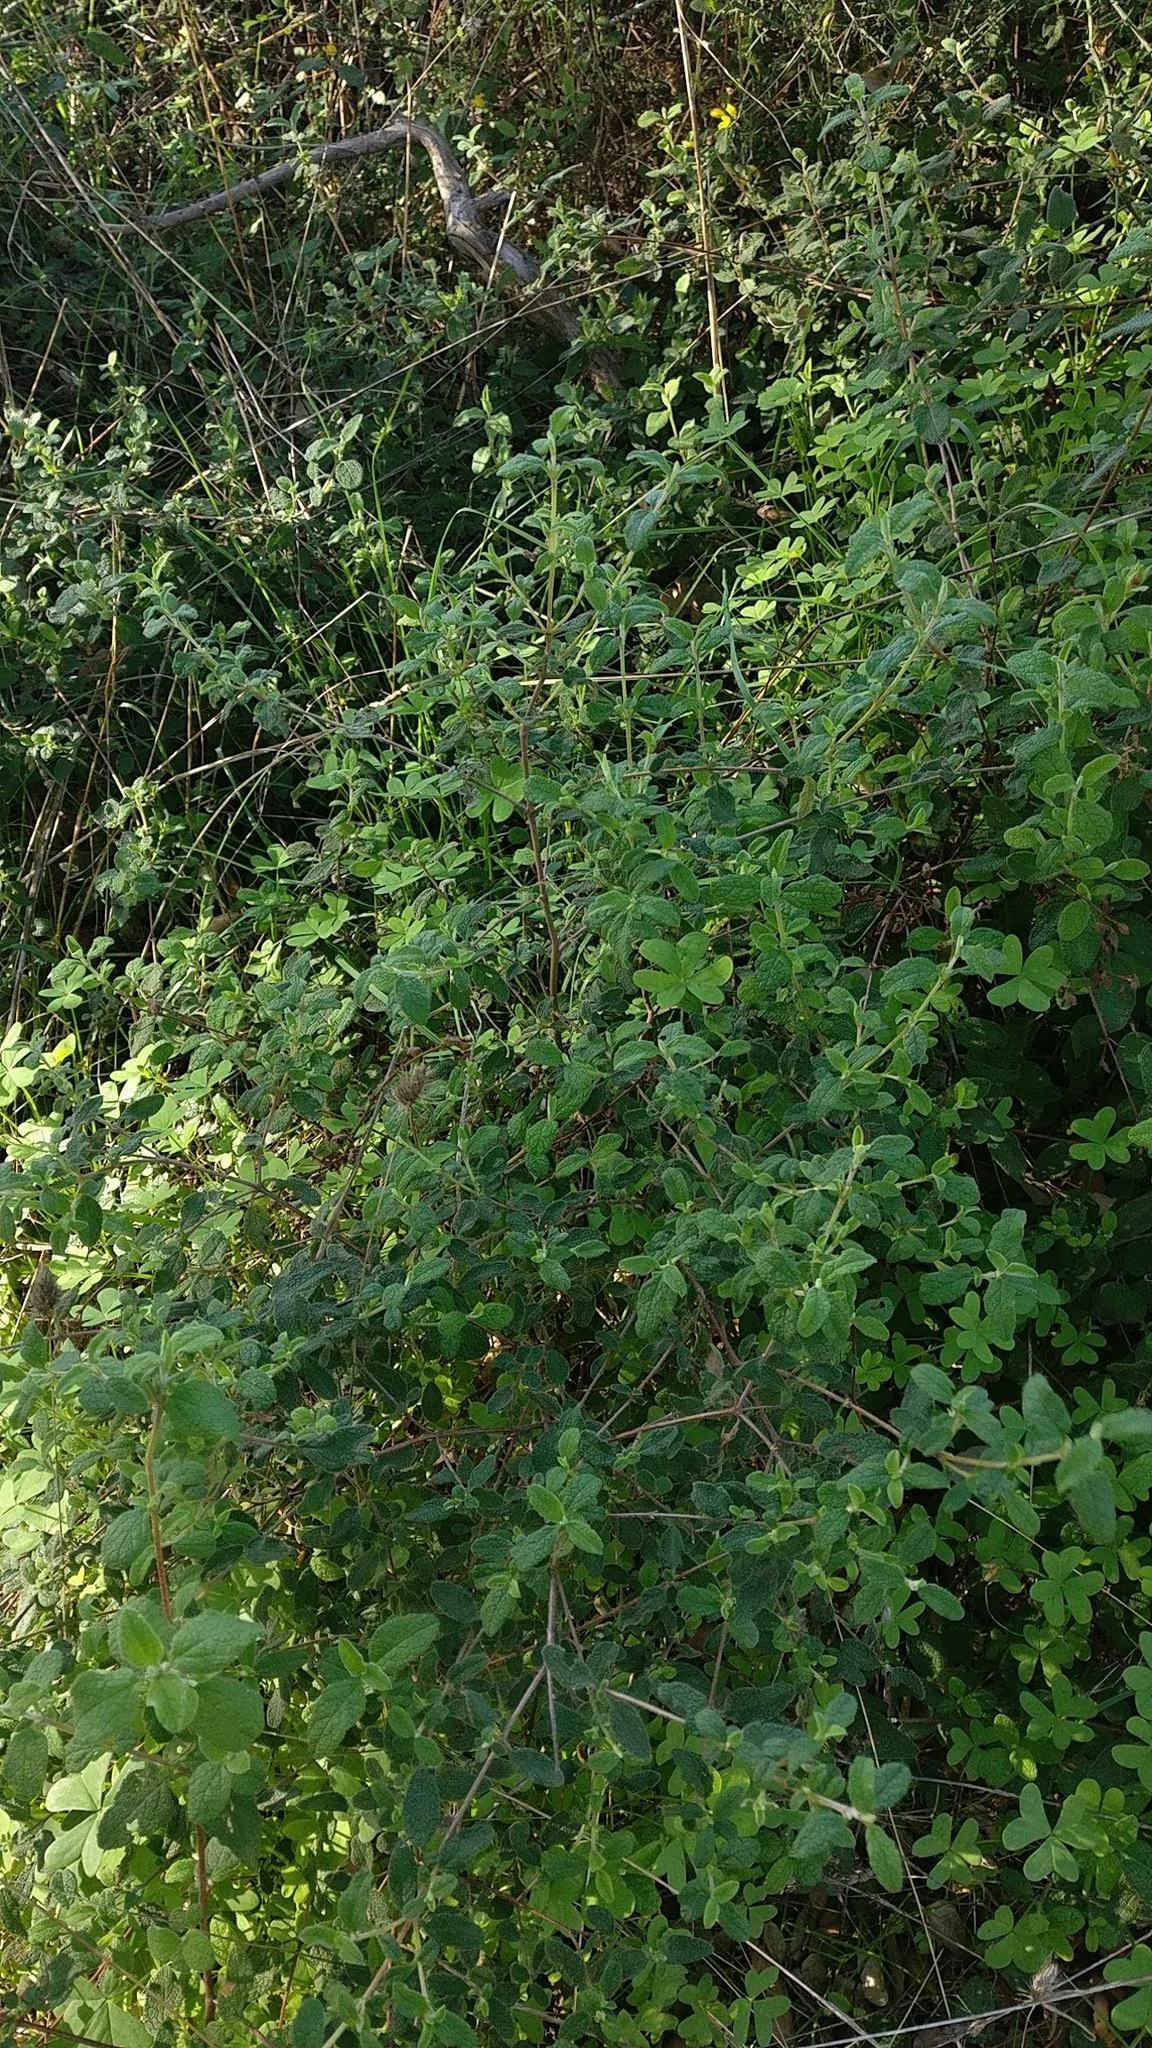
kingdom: Plantae
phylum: Tracheophyta
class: Magnoliopsida
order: Malvales
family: Cistaceae
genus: Cistus
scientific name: Cistus salviifolius
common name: Salvia cistus
